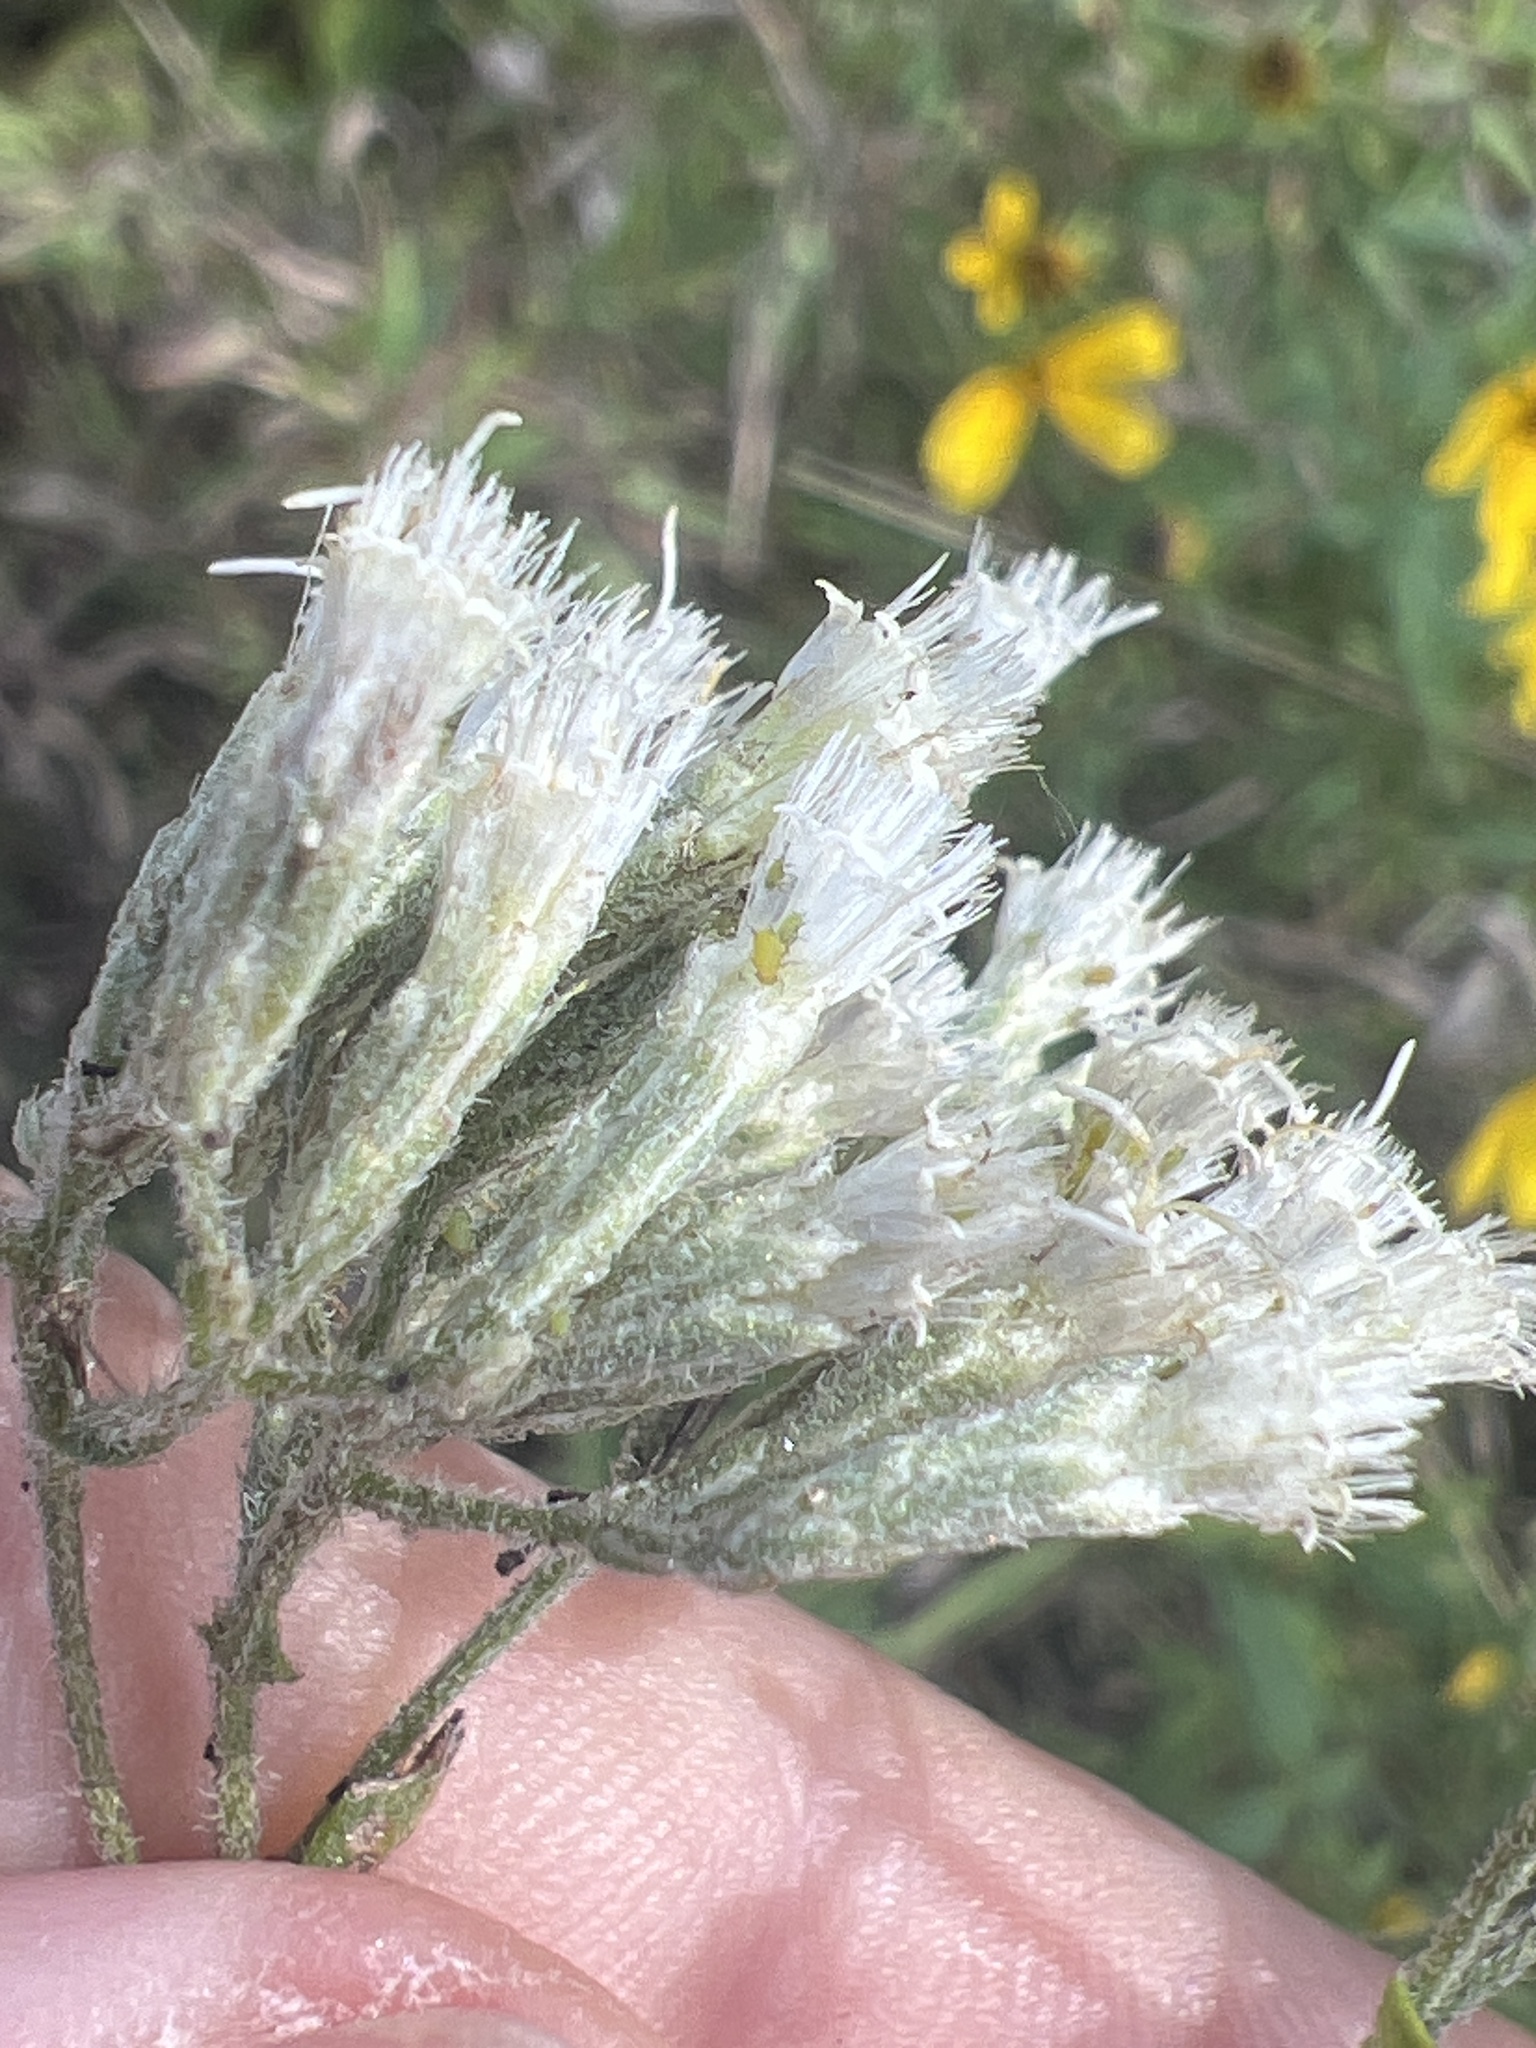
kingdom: Plantae
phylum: Tracheophyta
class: Magnoliopsida
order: Asterales
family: Asteraceae
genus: Eupatorium
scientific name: Eupatorium torreyanum
